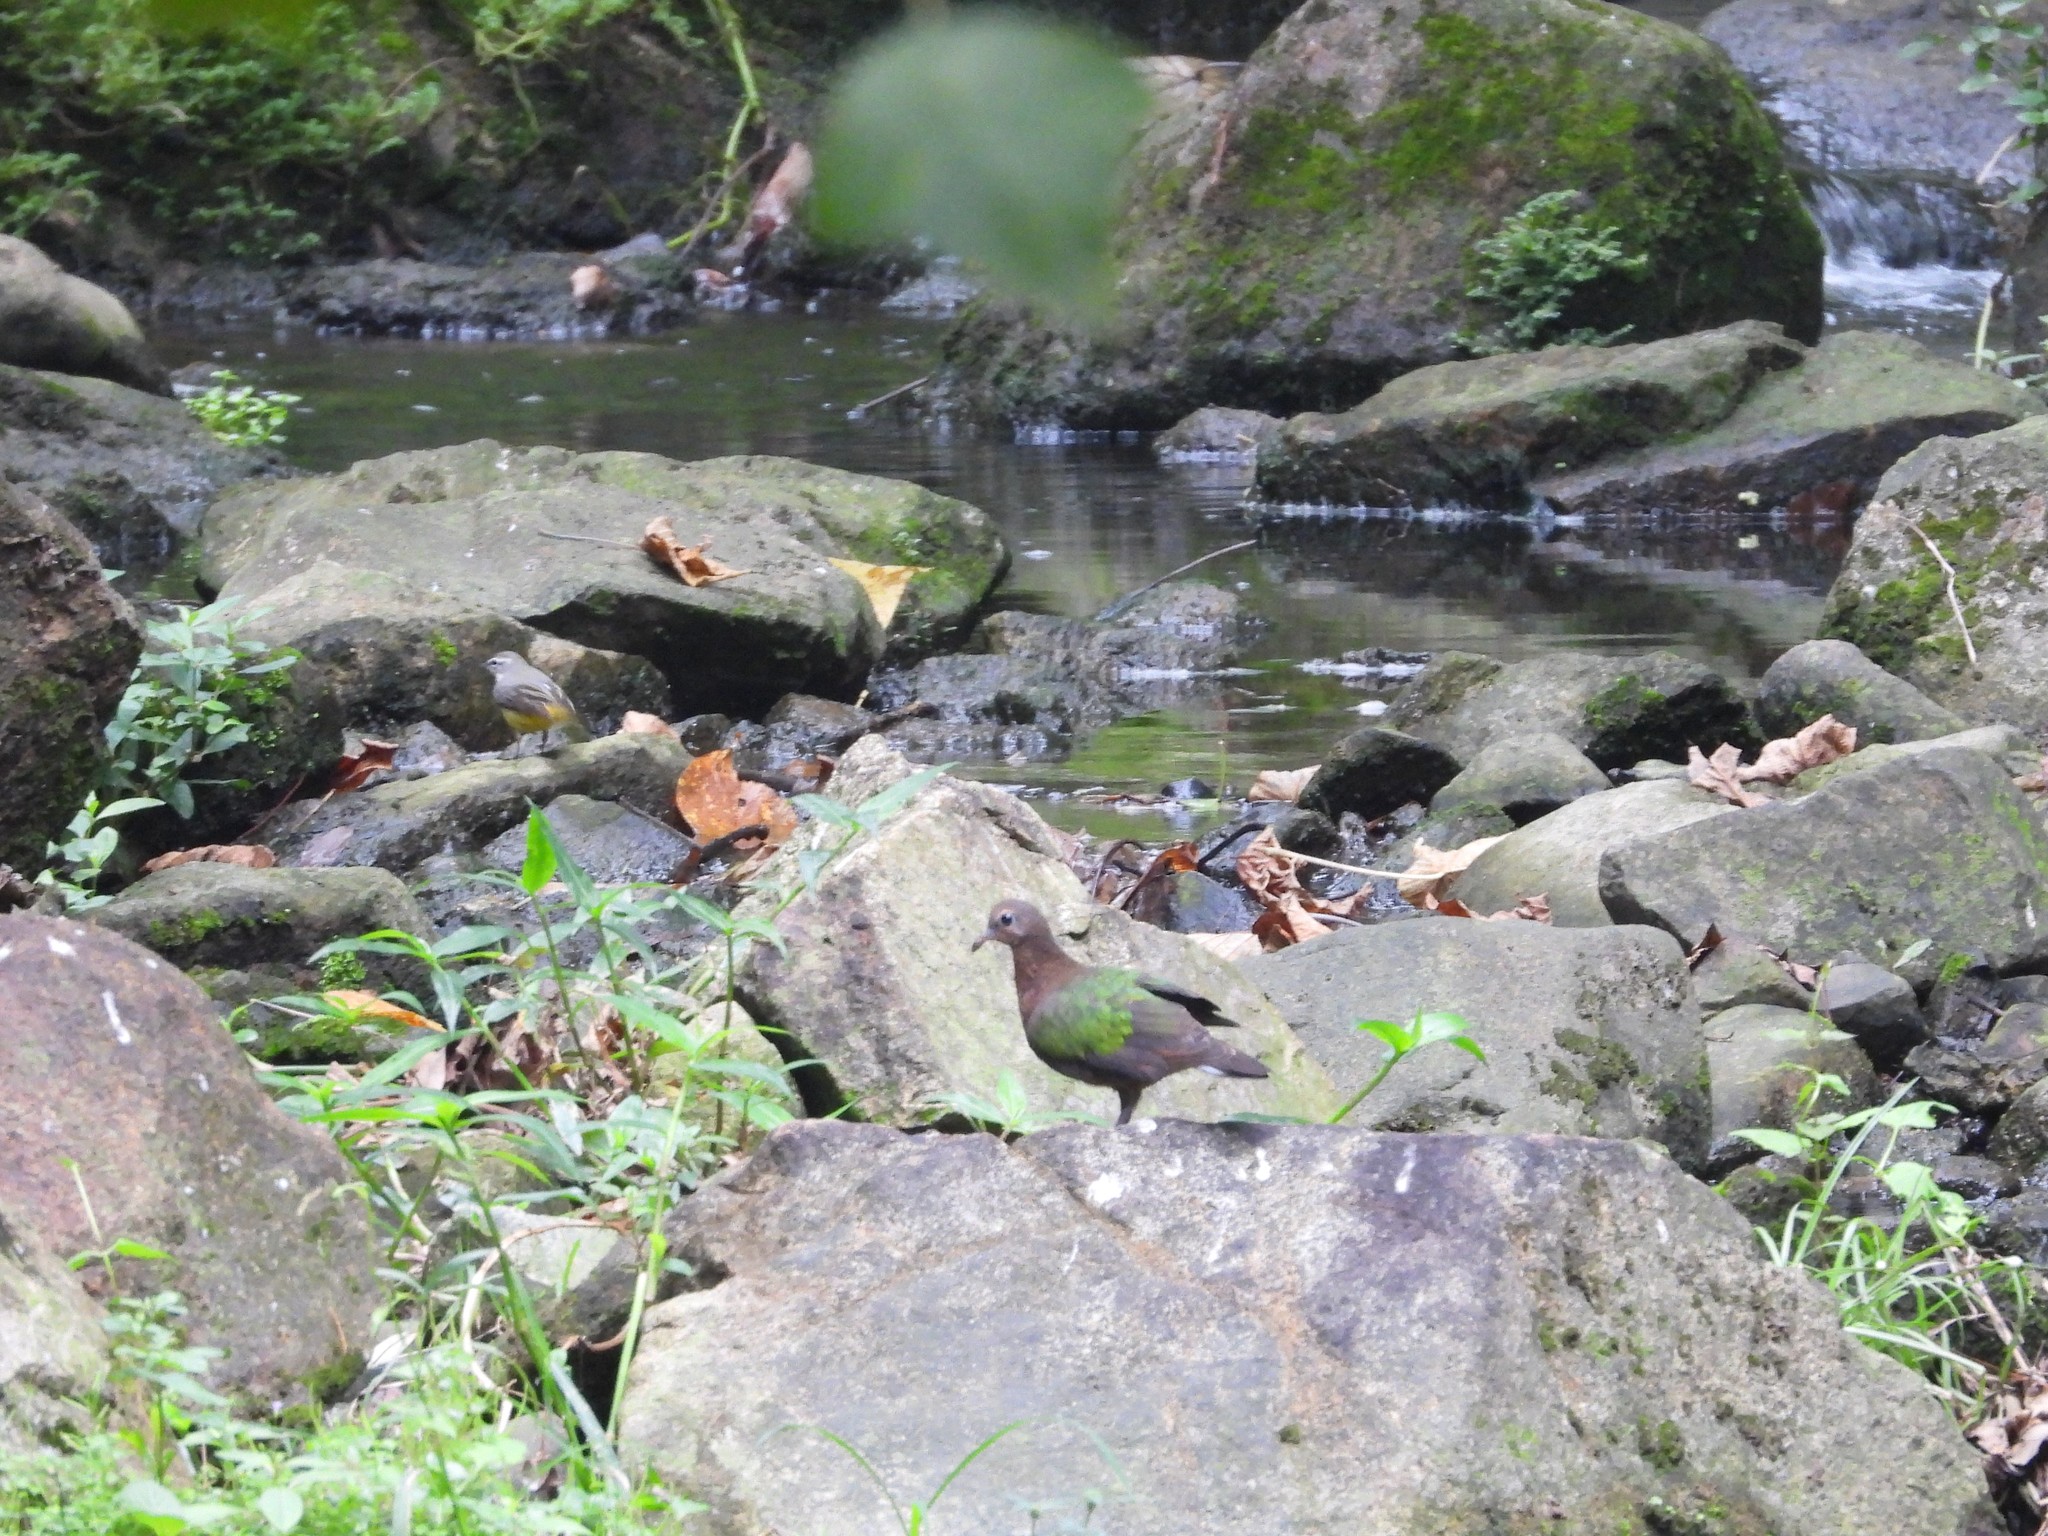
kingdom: Animalia
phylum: Chordata
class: Aves
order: Columbiformes
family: Columbidae
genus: Chalcophaps
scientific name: Chalcophaps indica
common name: Common emerald dove
